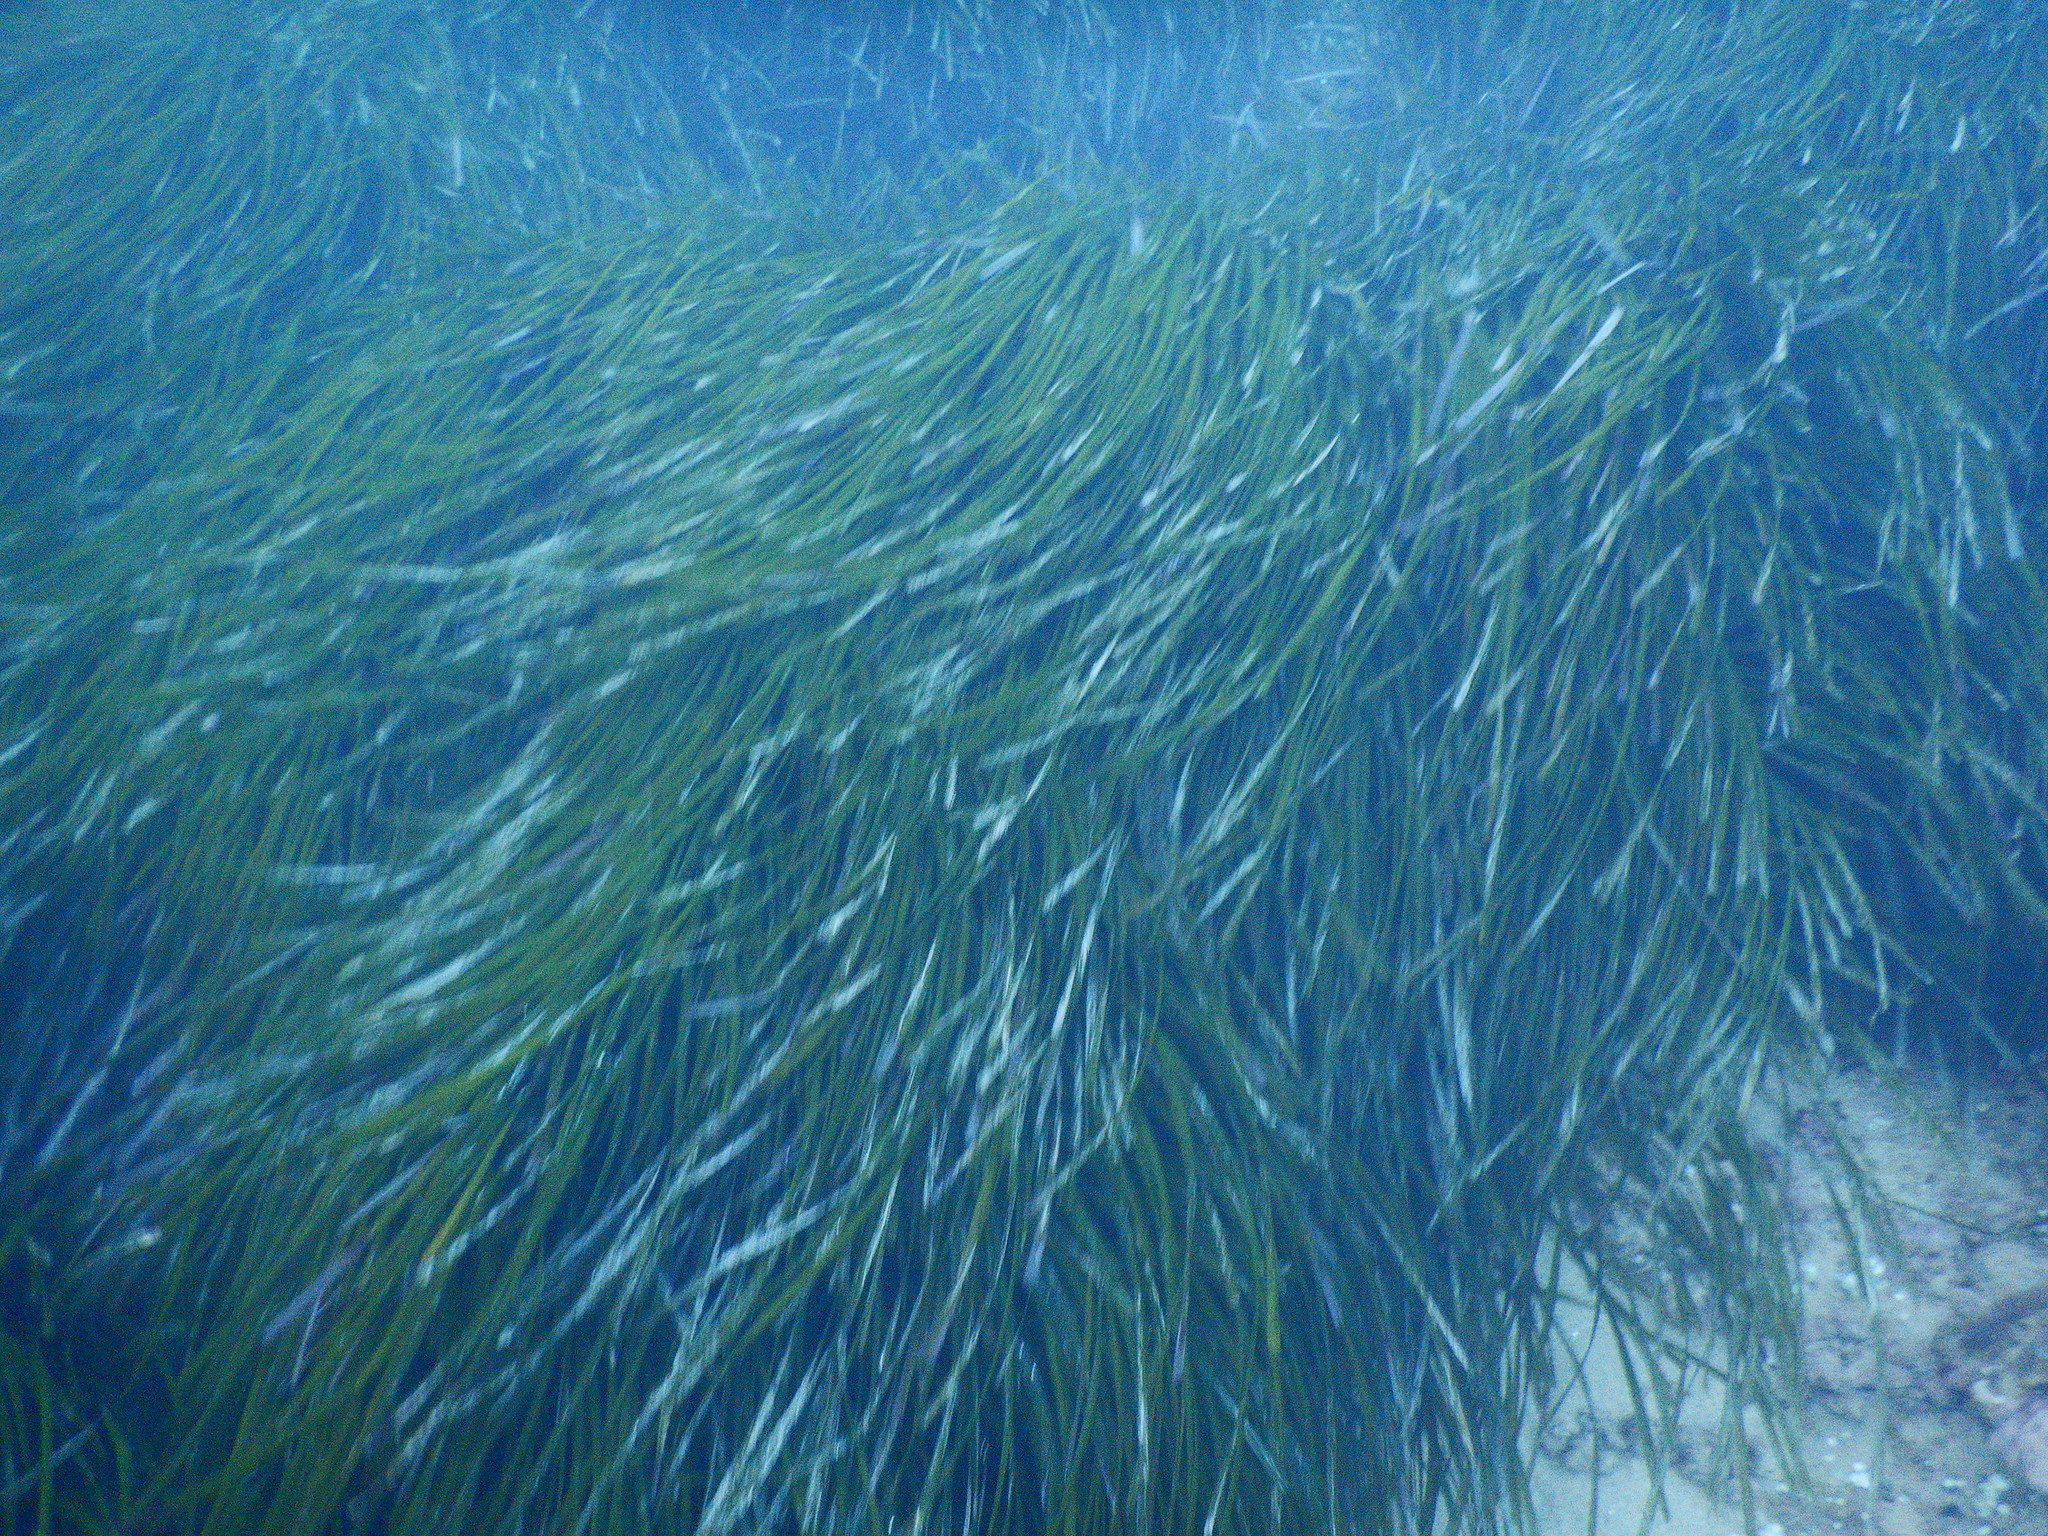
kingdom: Plantae
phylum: Tracheophyta
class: Liliopsida
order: Alismatales
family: Posidoniaceae
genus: Posidonia
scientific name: Posidonia oceanica
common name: Mediterranean tapeweed
